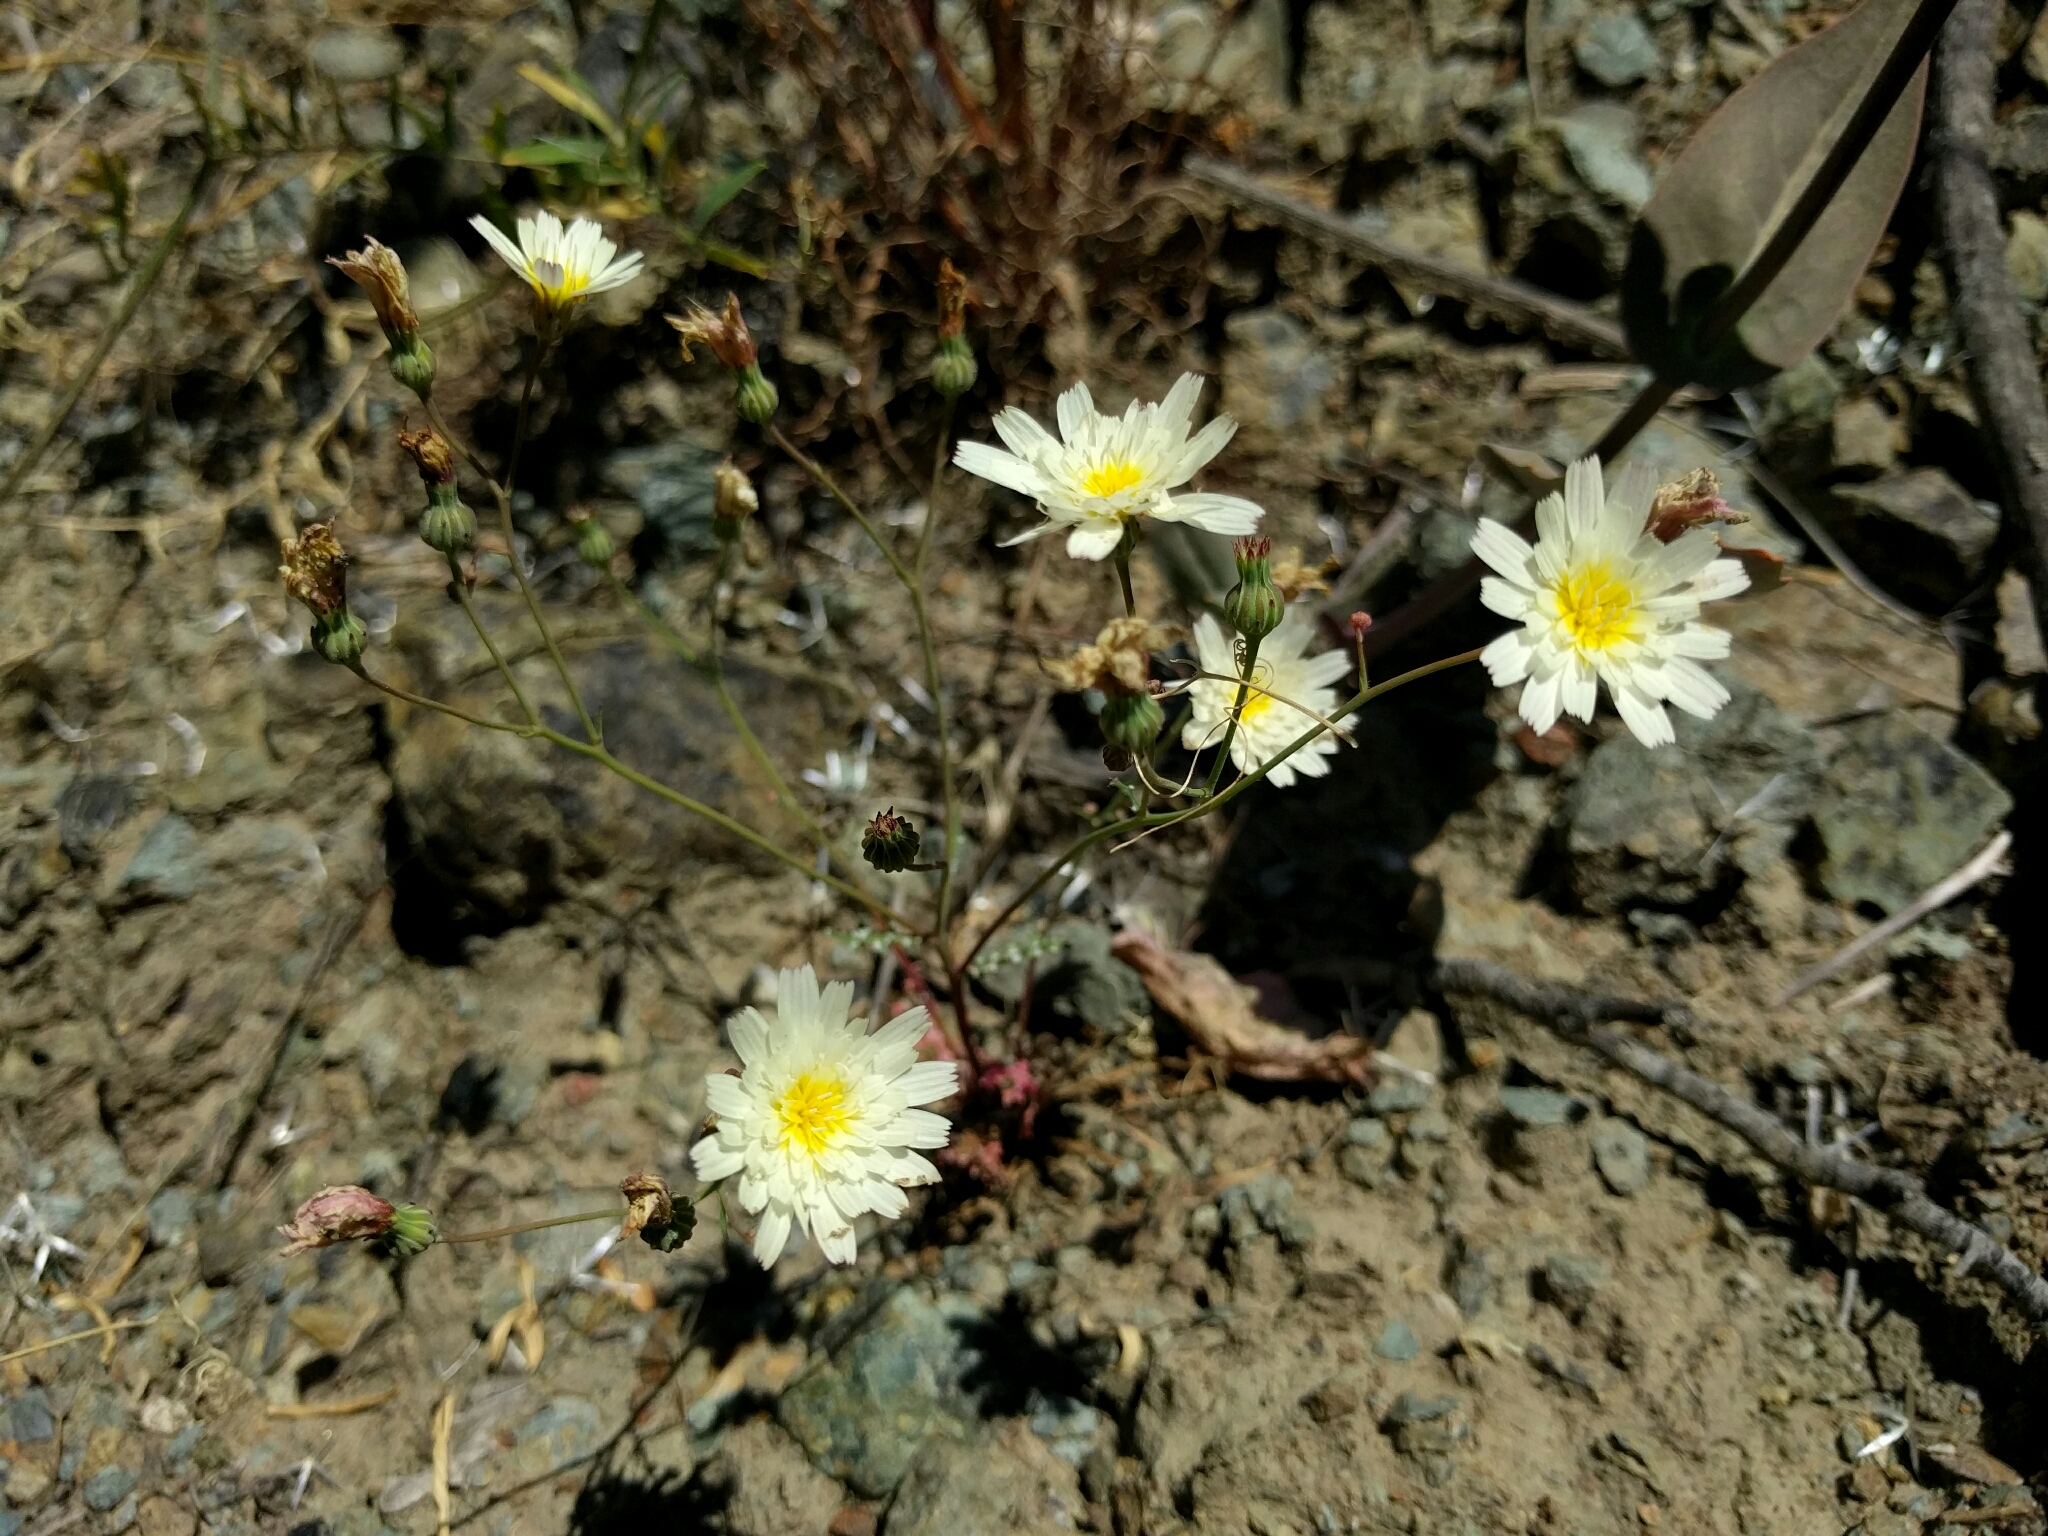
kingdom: Plantae
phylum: Tracheophyta
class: Magnoliopsida
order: Asterales
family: Asteraceae
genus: Malacothrix
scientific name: Malacothrix floccifera
